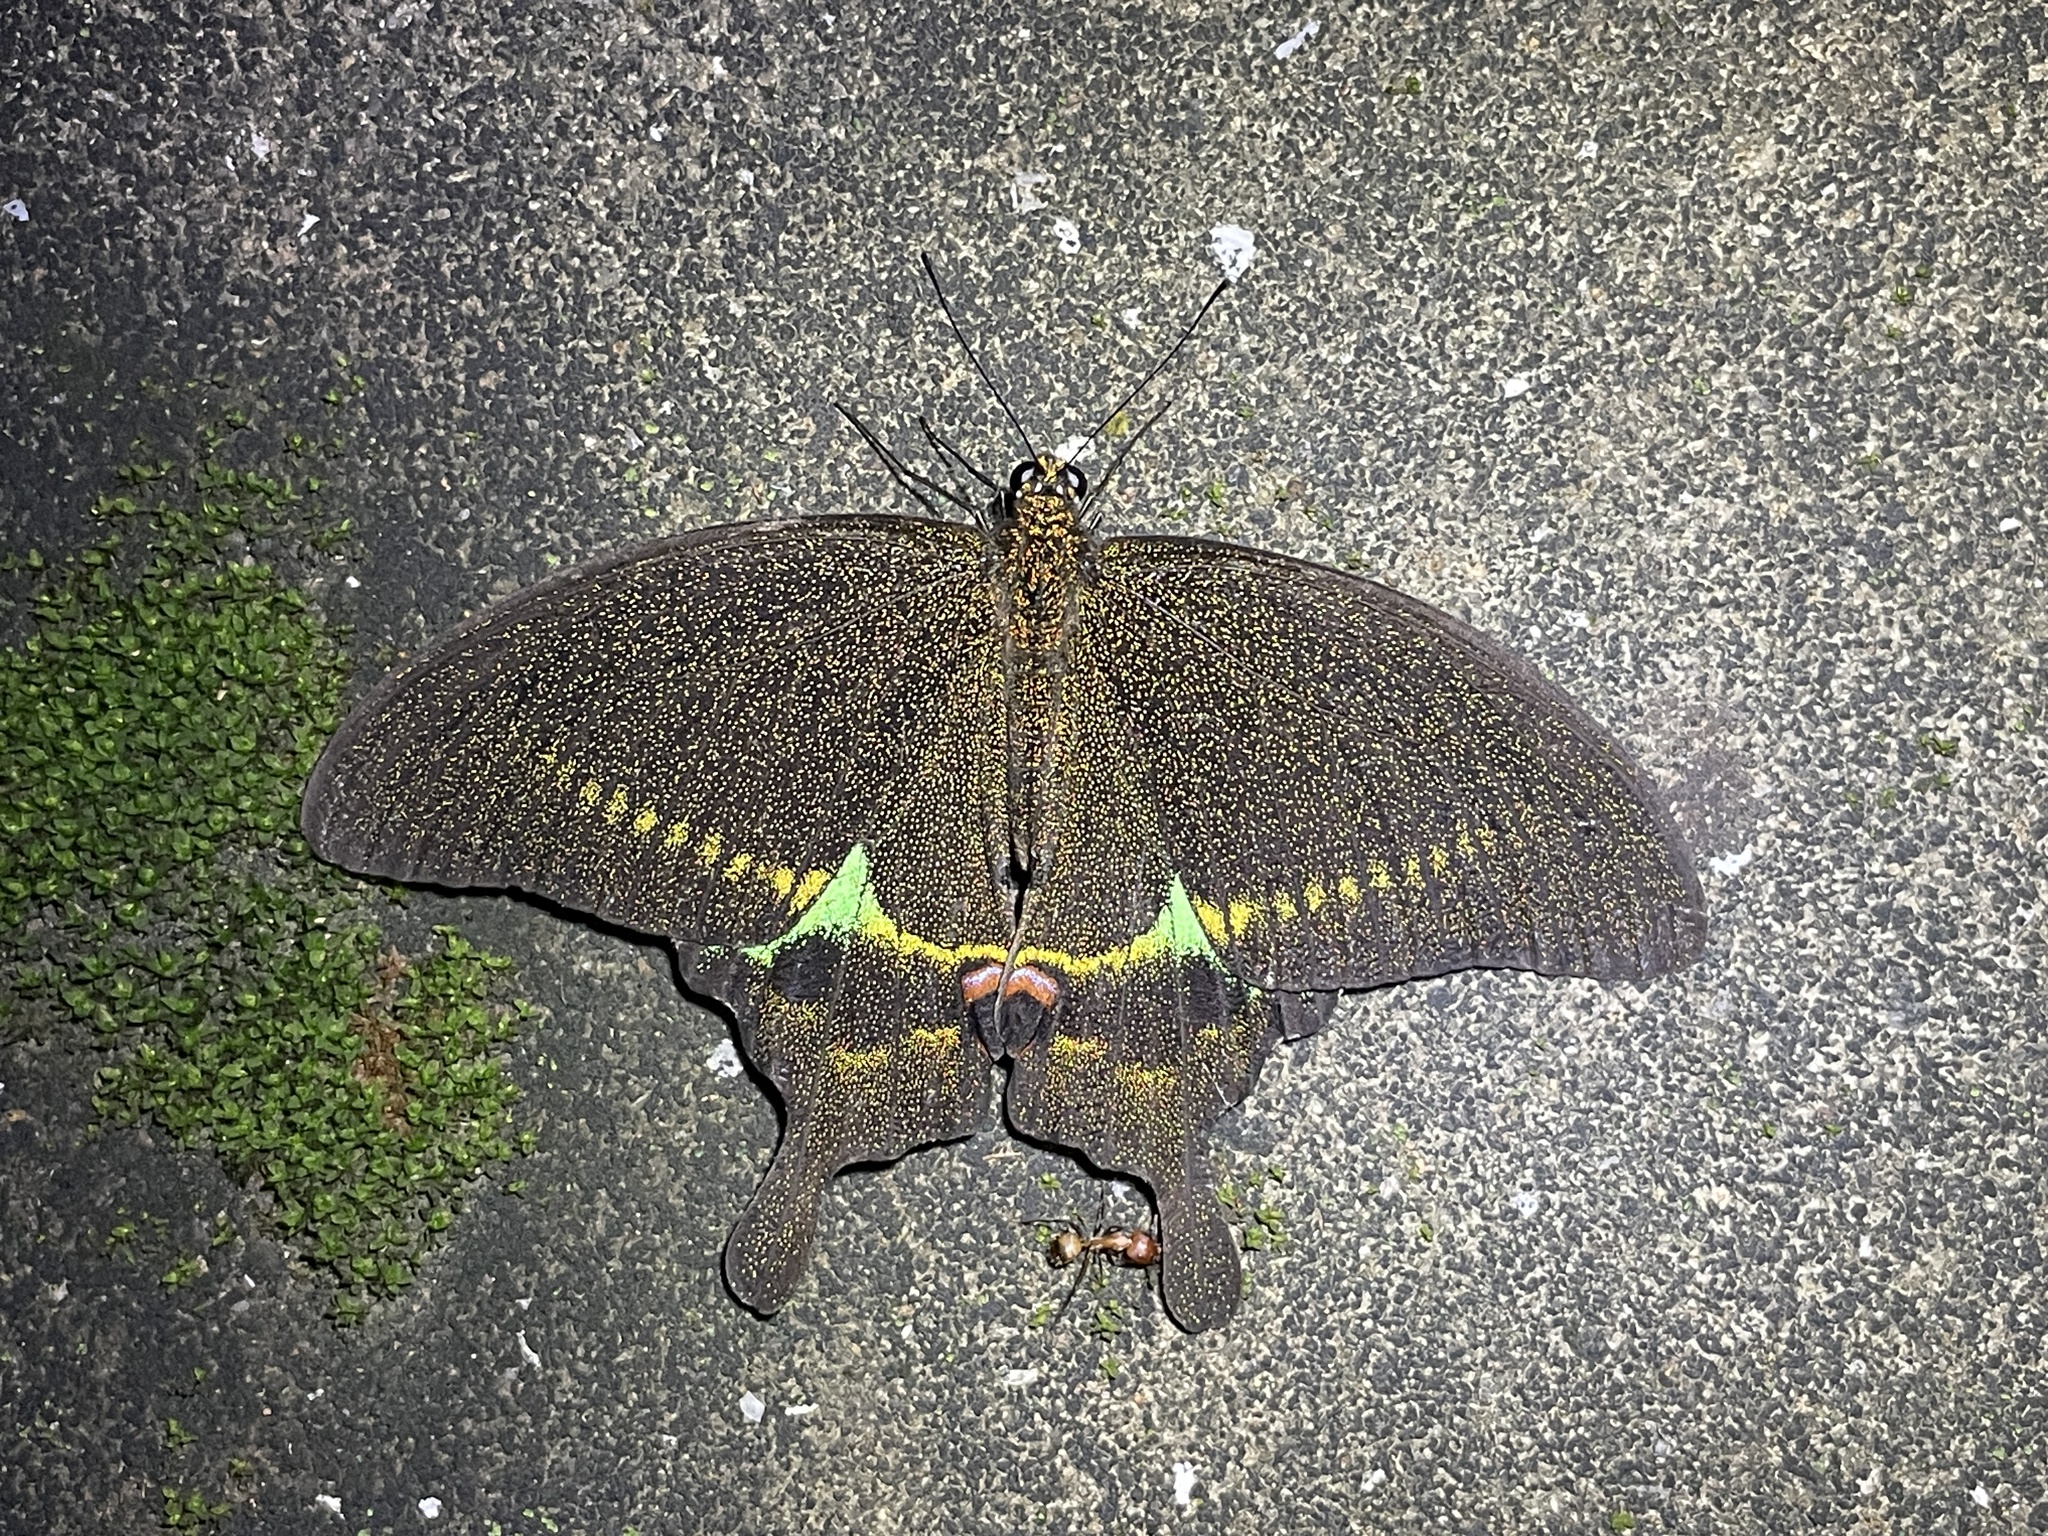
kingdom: Animalia
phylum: Arthropoda
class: Insecta
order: Lepidoptera
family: Papilionidae
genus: Papilio
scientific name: Papilio paris
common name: Paris peacock
